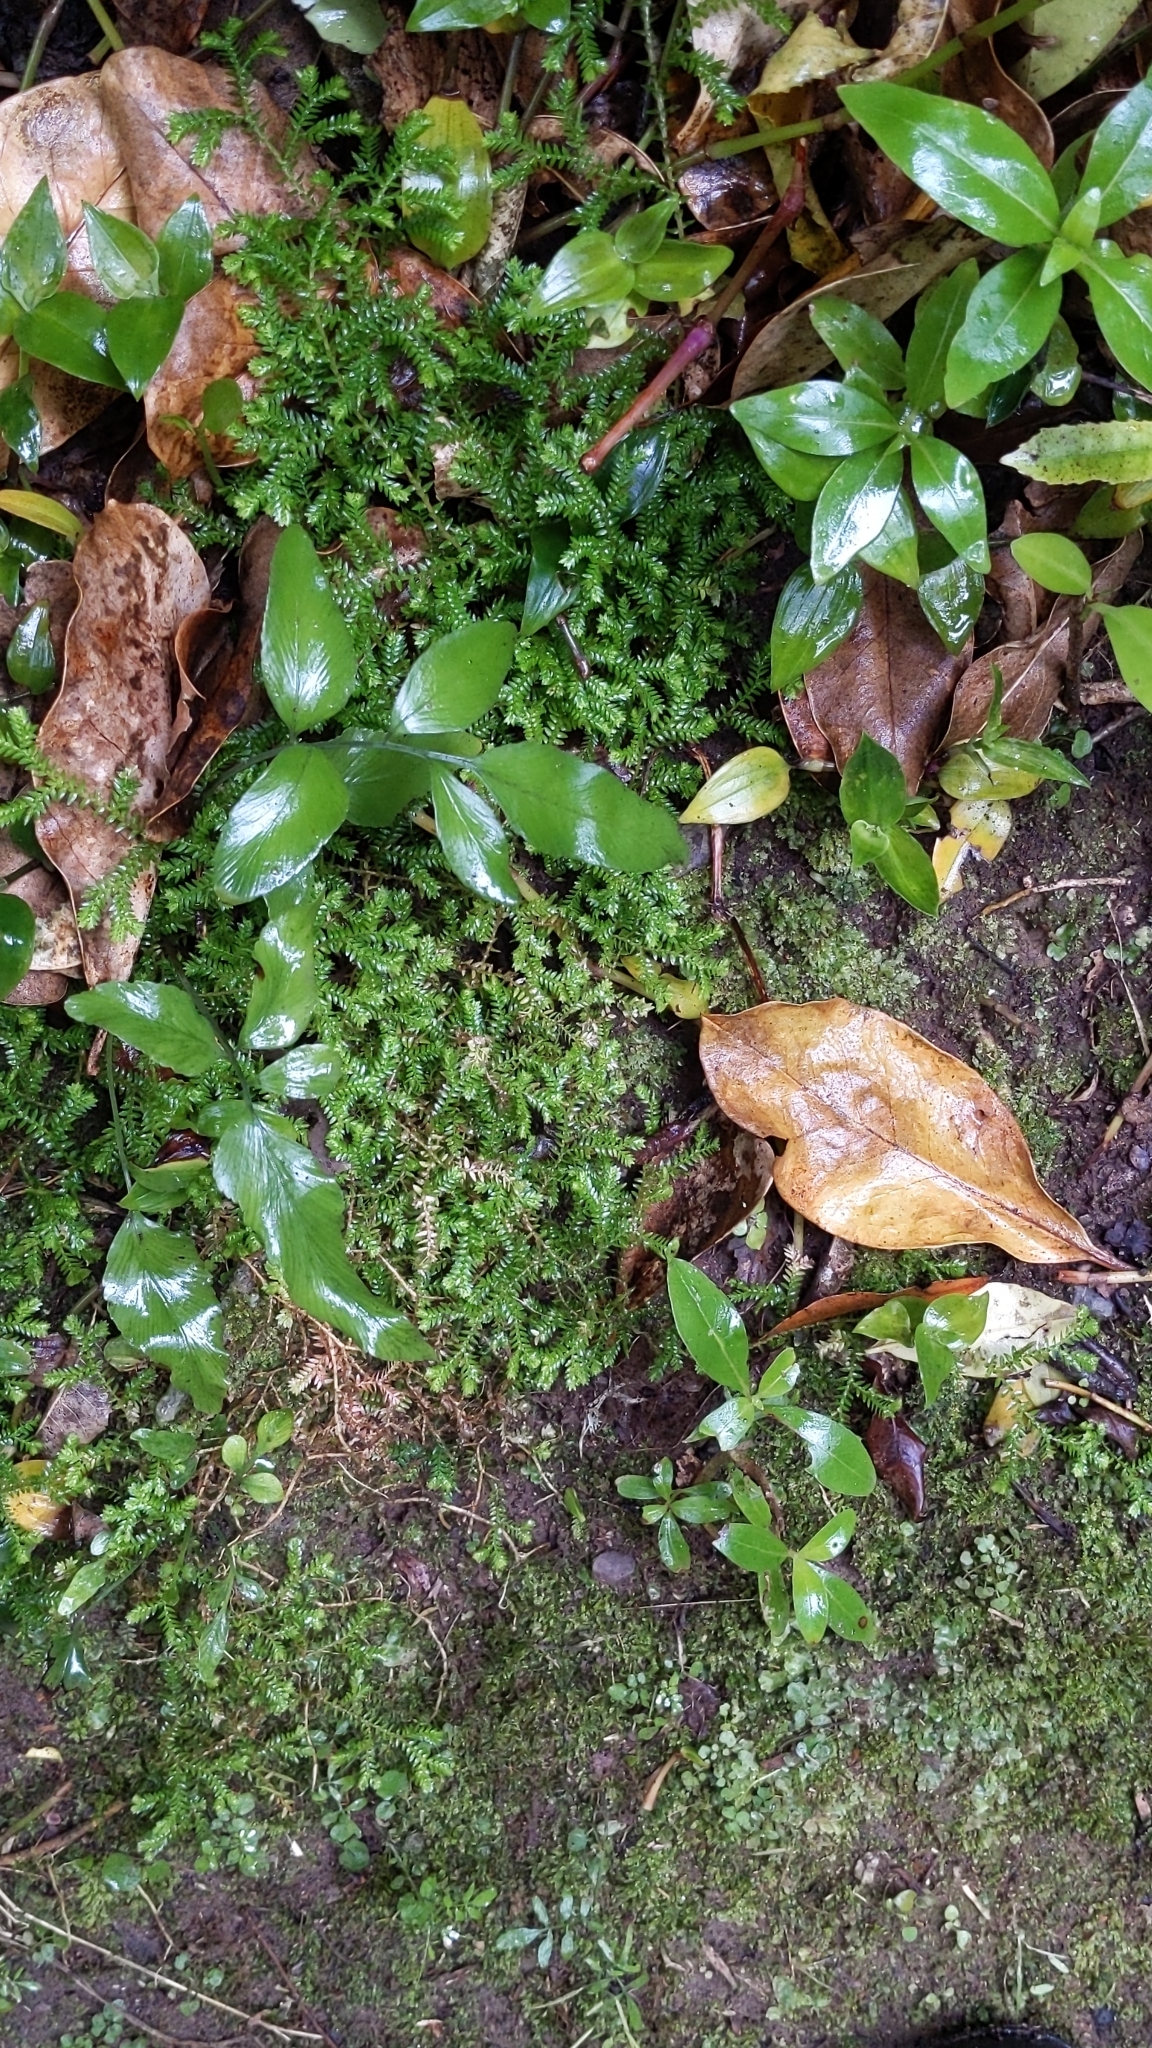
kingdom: Plantae
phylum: Tracheophyta
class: Lycopodiopsida
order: Selaginellales
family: Selaginellaceae
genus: Selaginella
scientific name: Selaginella kraussiana
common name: Krauss' spikemoss
